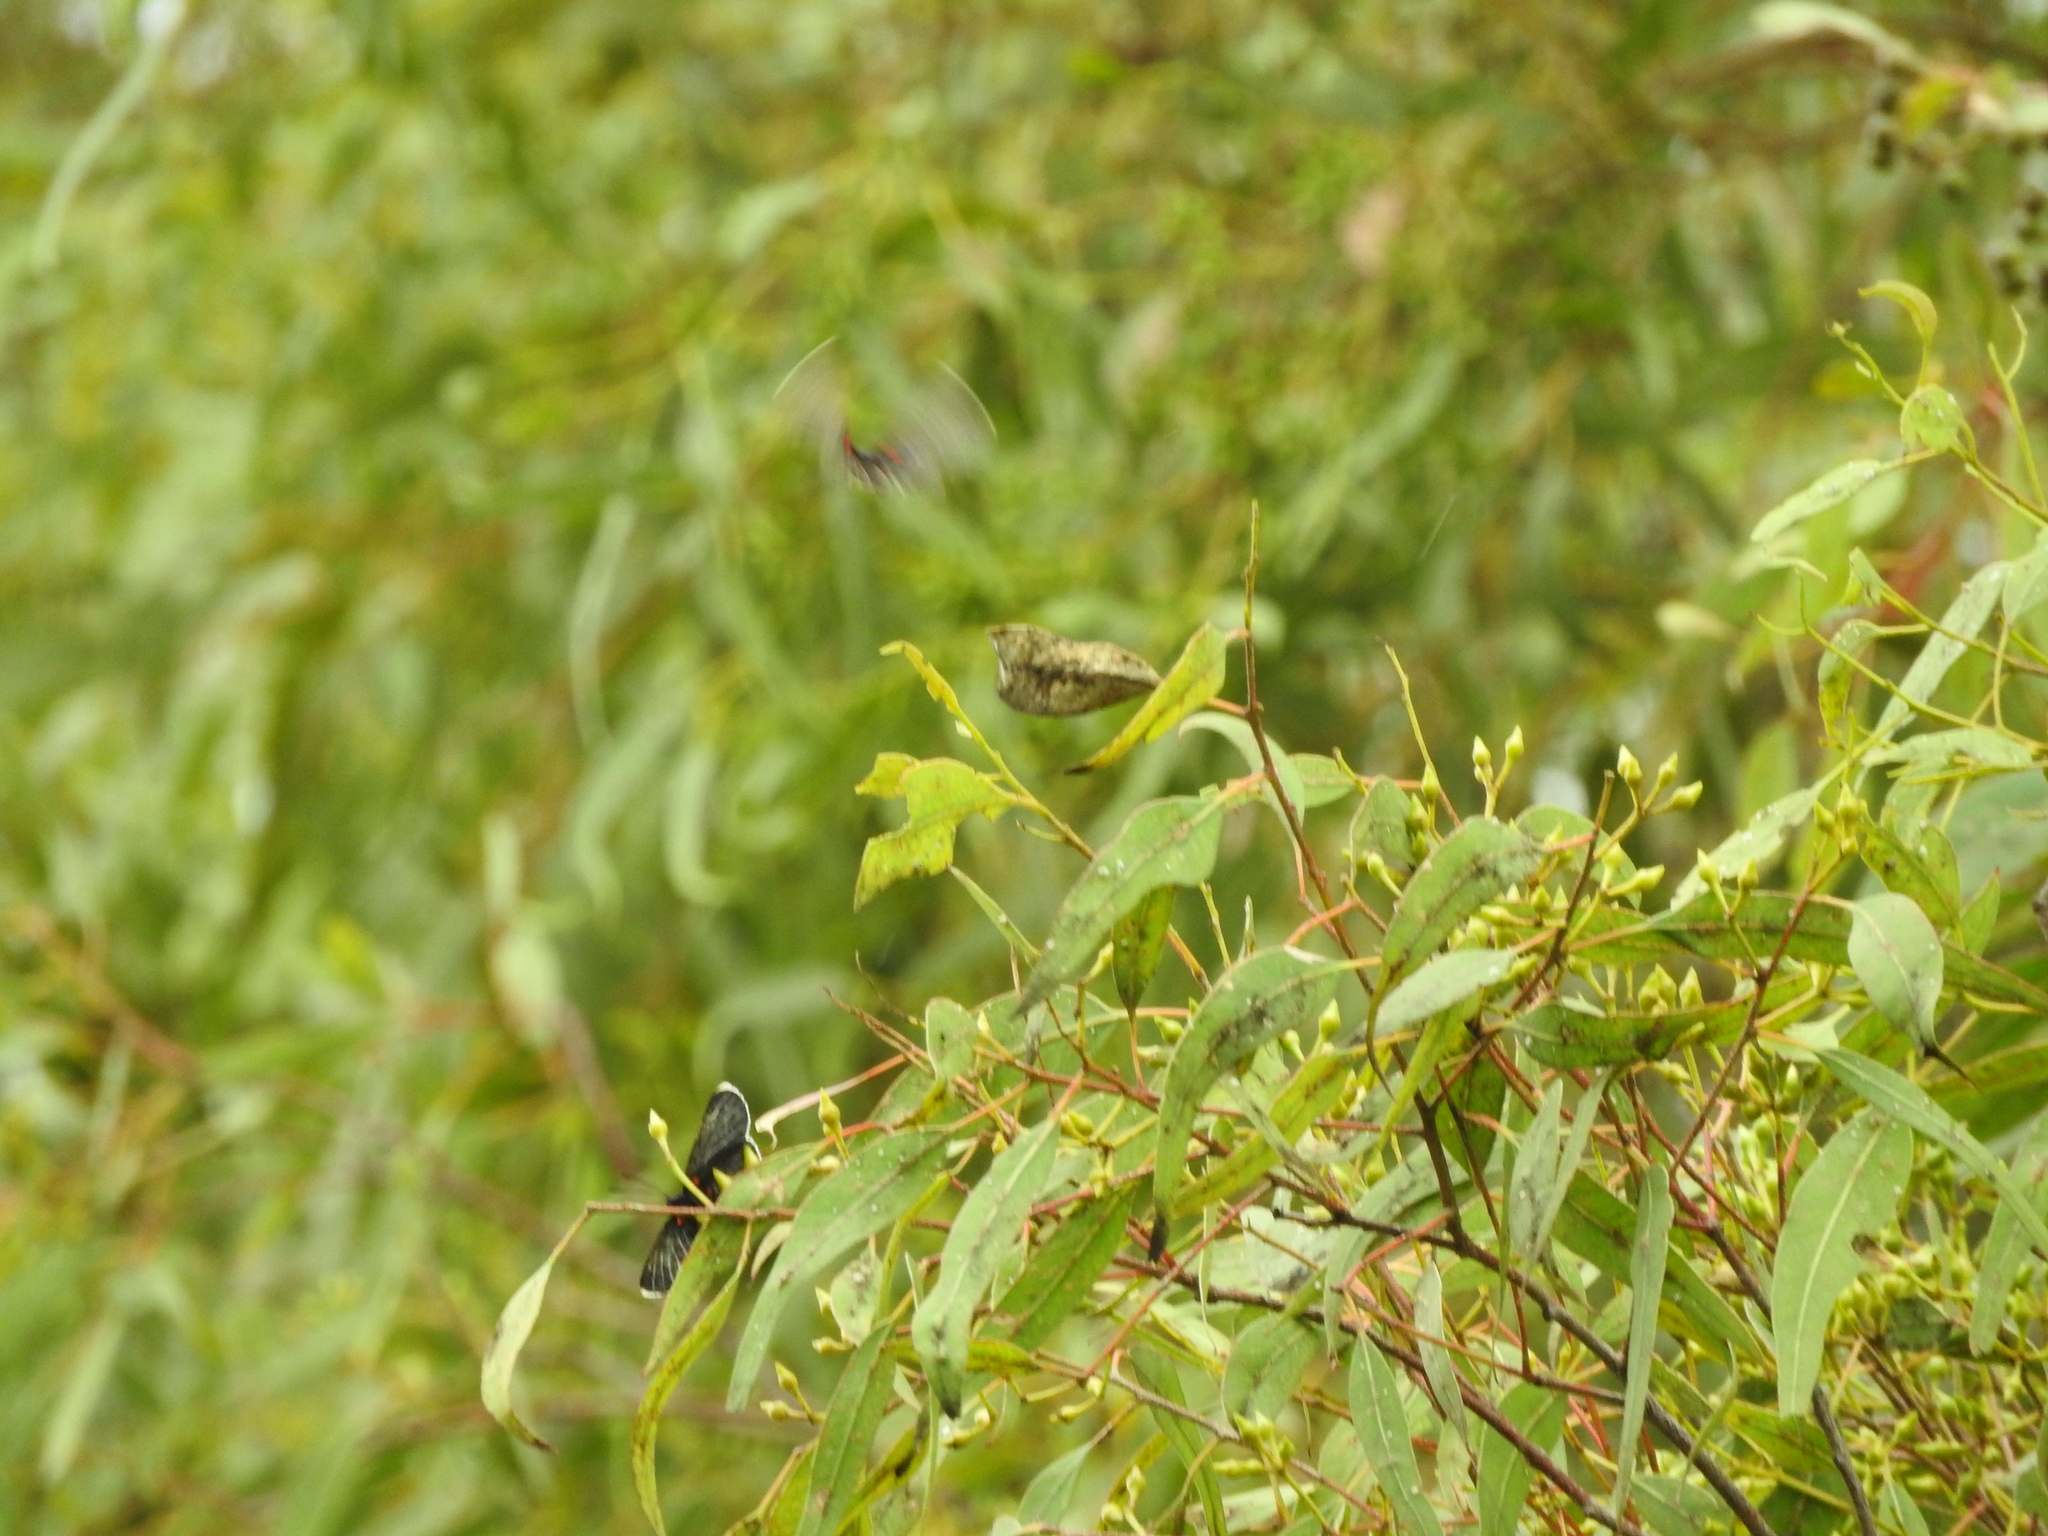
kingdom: Animalia
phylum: Arthropoda
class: Insecta
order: Lepidoptera
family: Nymphalidae
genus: Chlosyne
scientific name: Chlosyne ehrenbergii
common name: White-rayed patch
